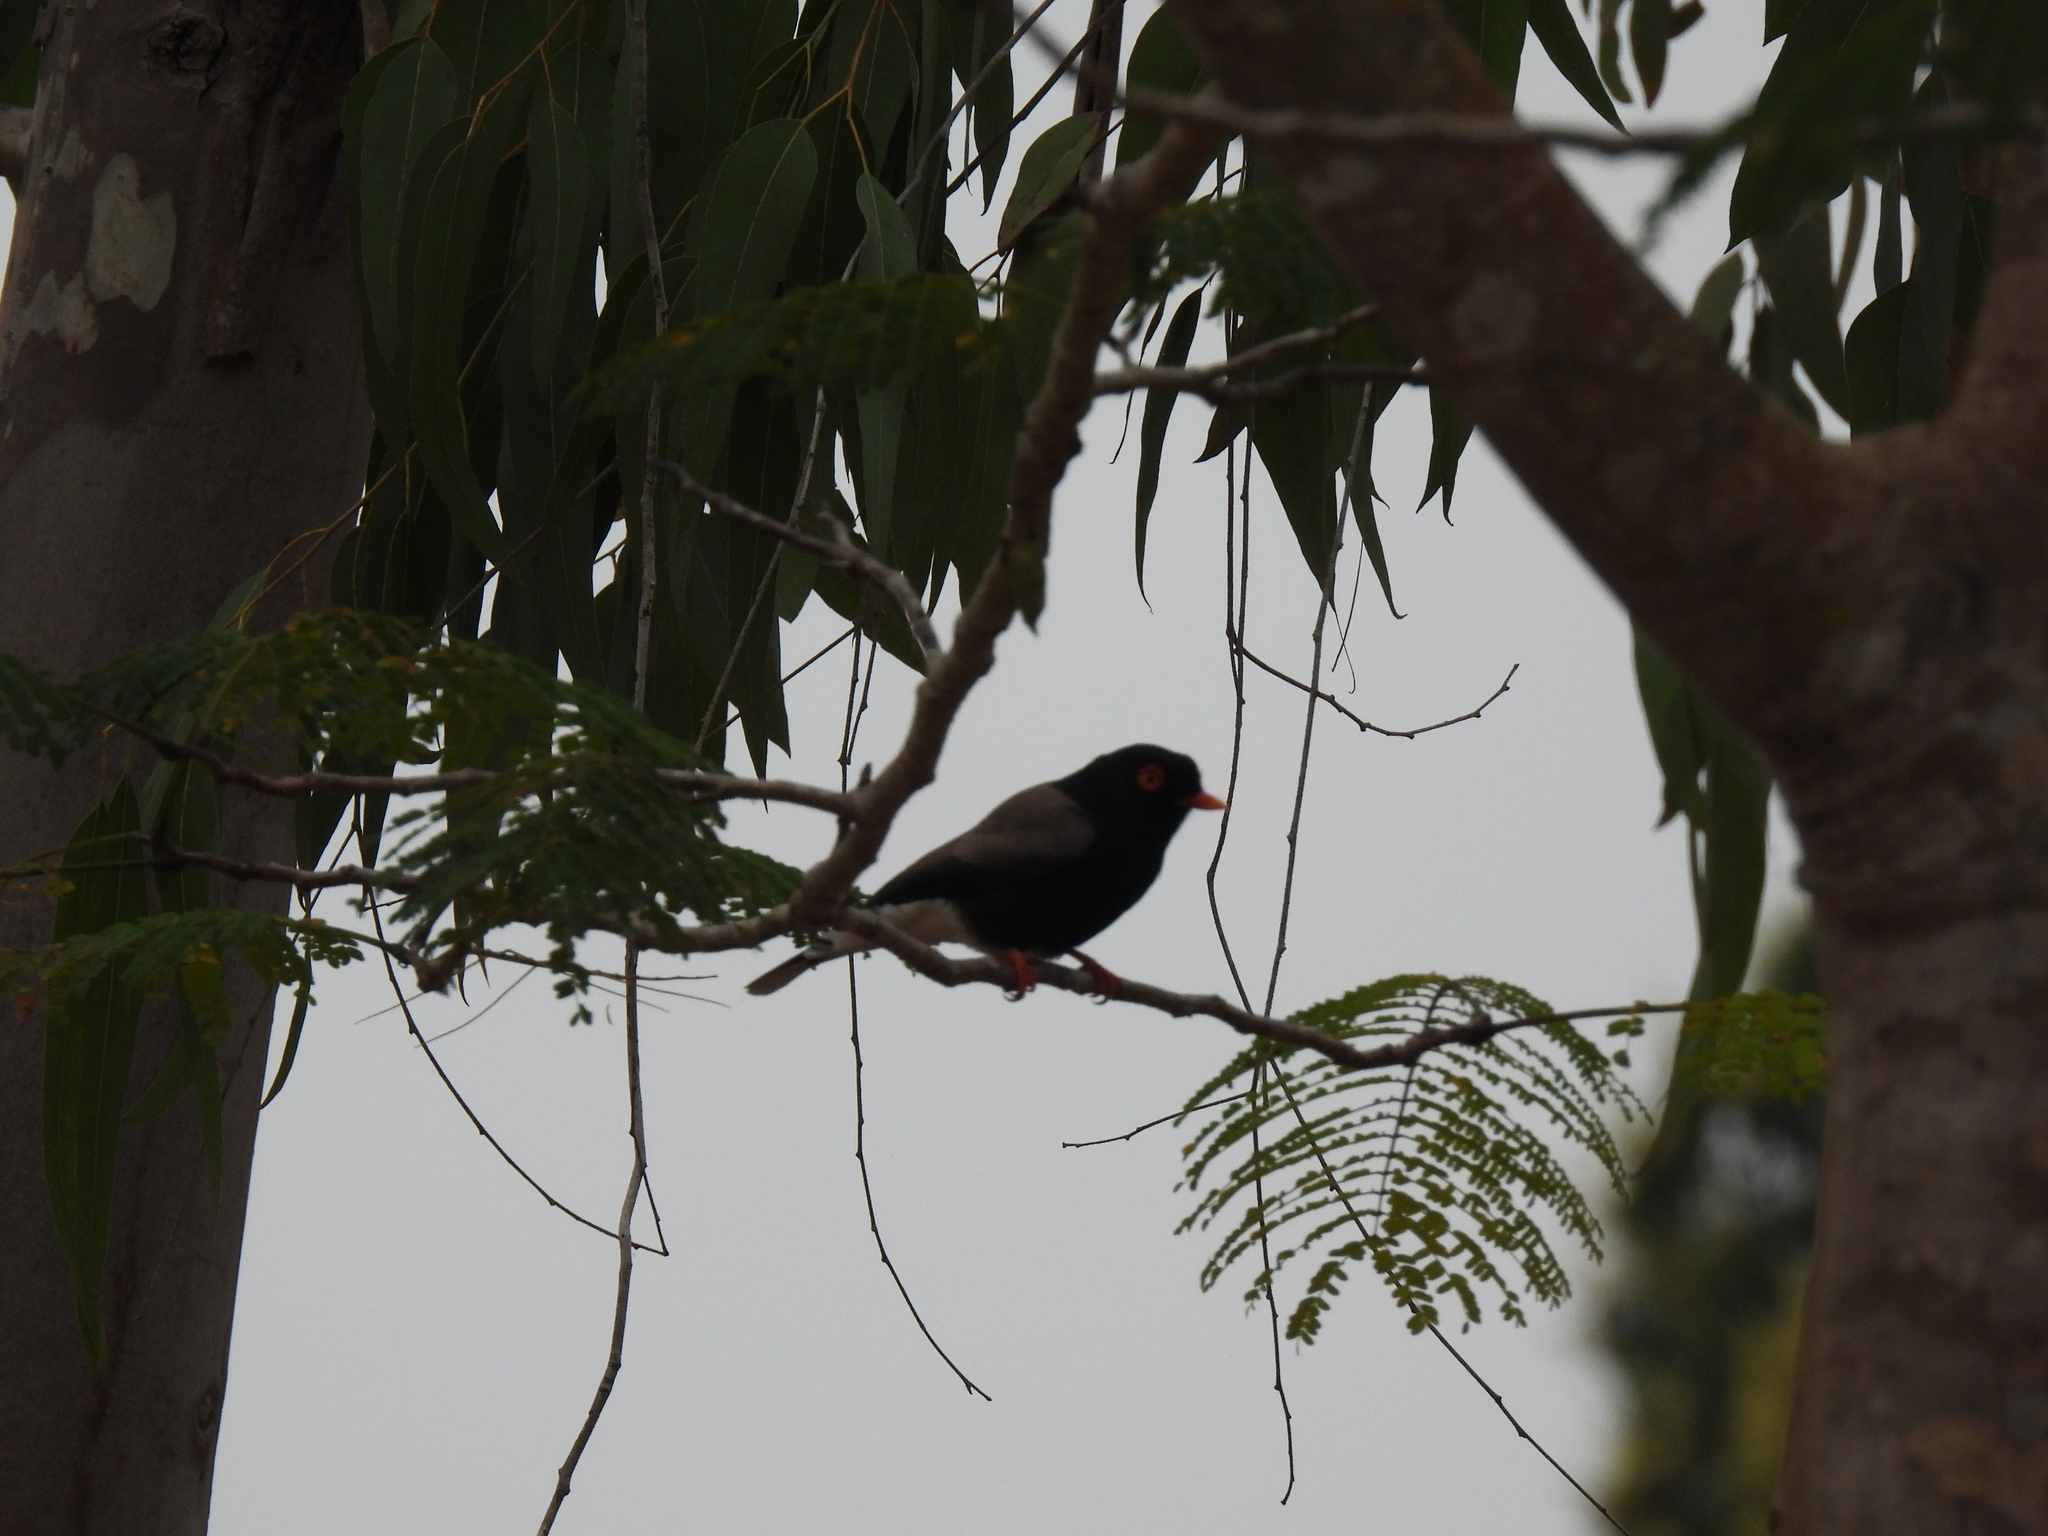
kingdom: Animalia
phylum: Chordata
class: Aves
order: Passeriformes
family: Prionopidae
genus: Prionops
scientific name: Prionops retzii
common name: Retz's helmetshrike
